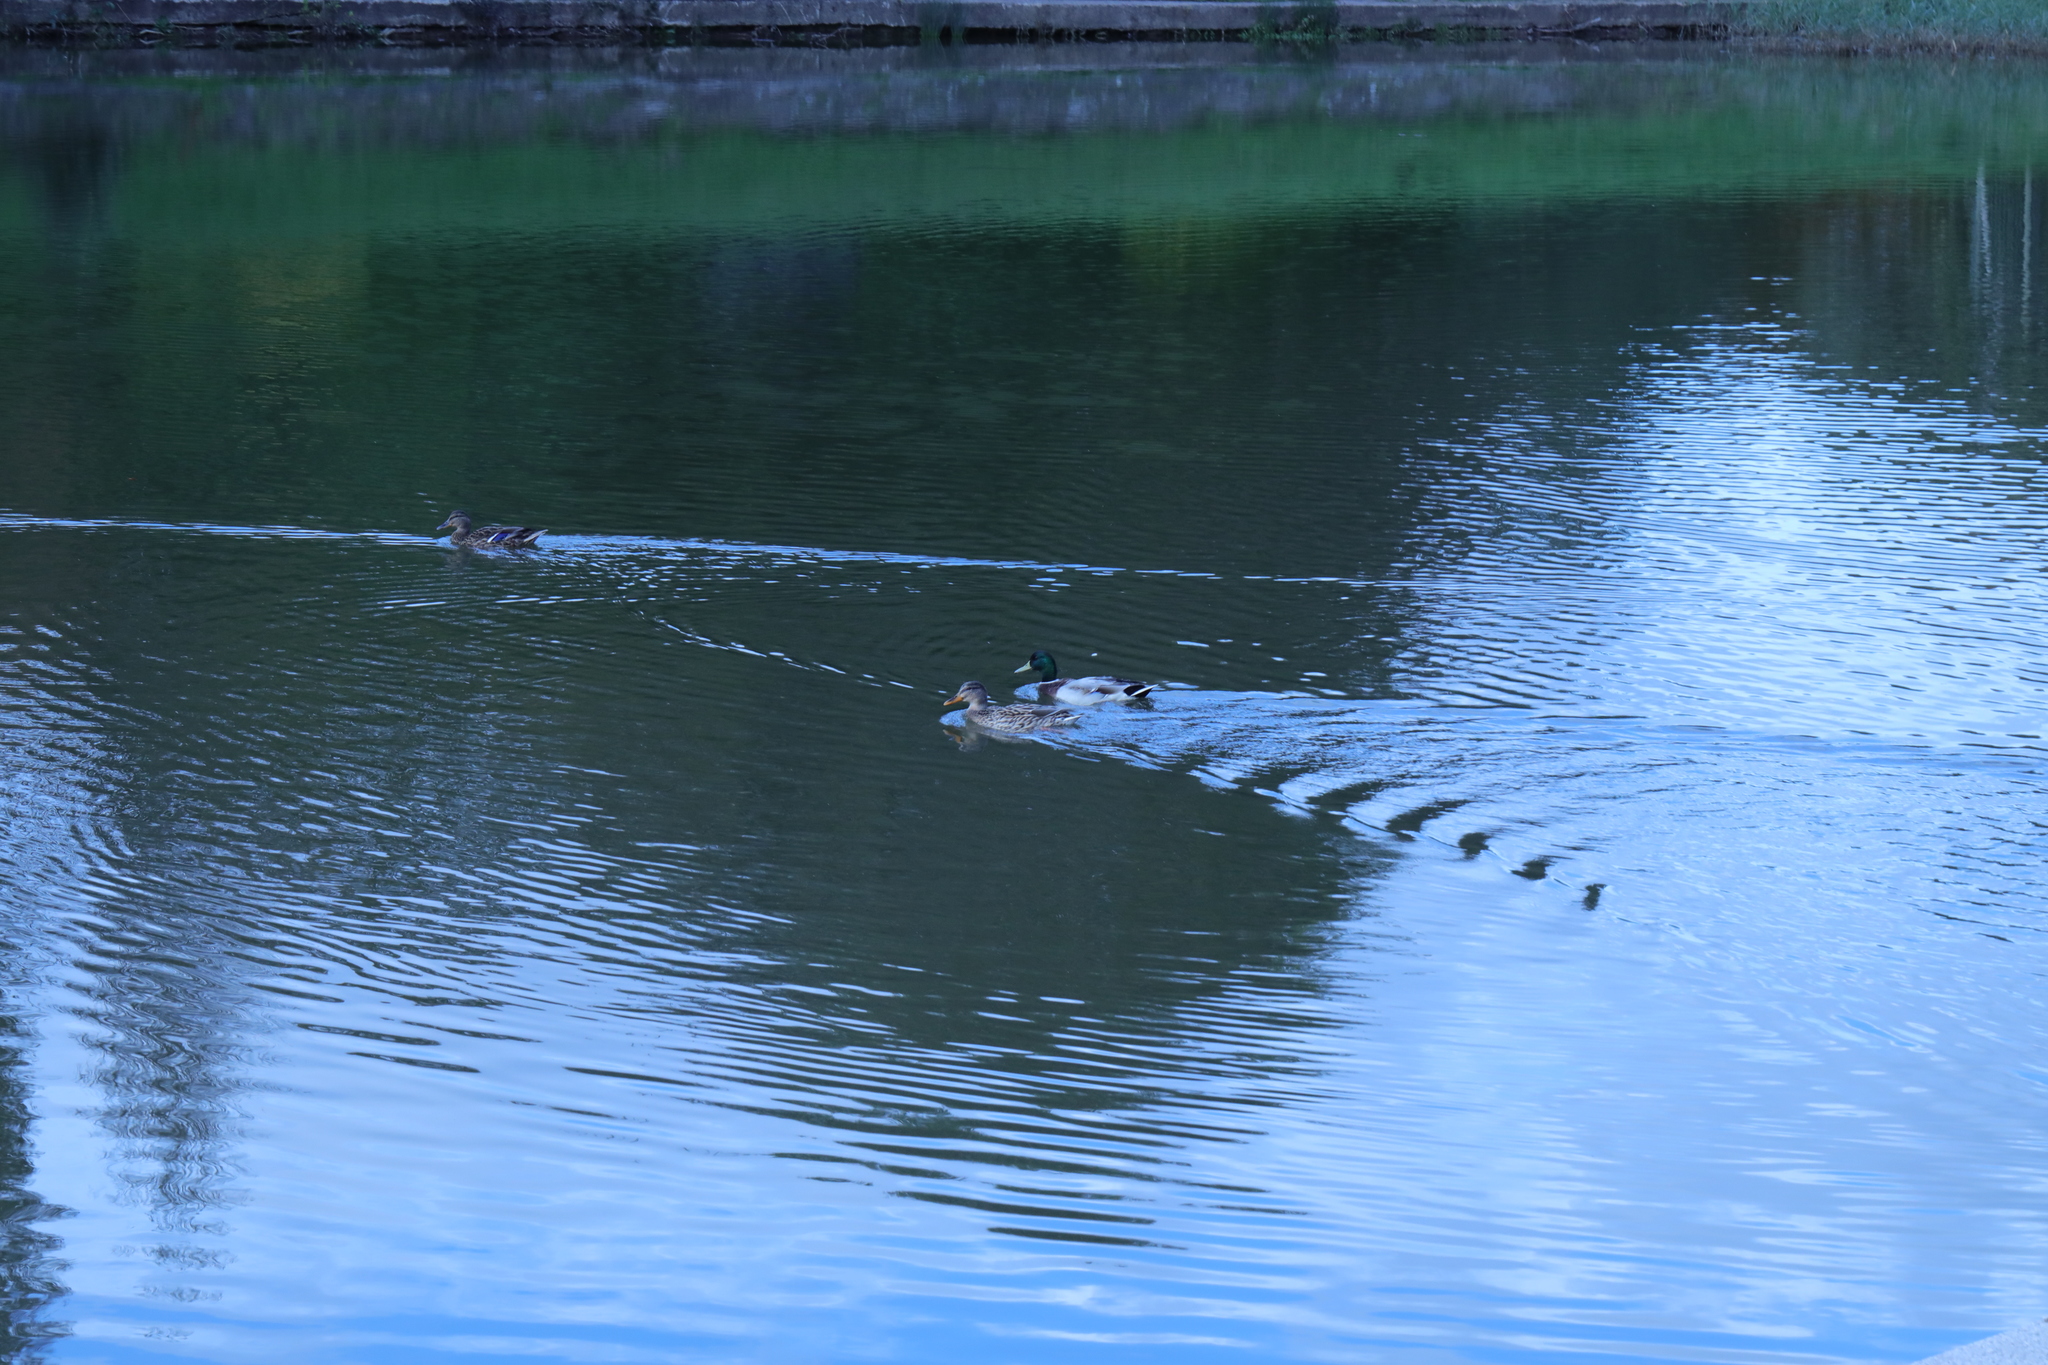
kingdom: Animalia
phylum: Chordata
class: Aves
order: Anseriformes
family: Anatidae
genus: Anas
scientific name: Anas platyrhynchos
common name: Mallard
